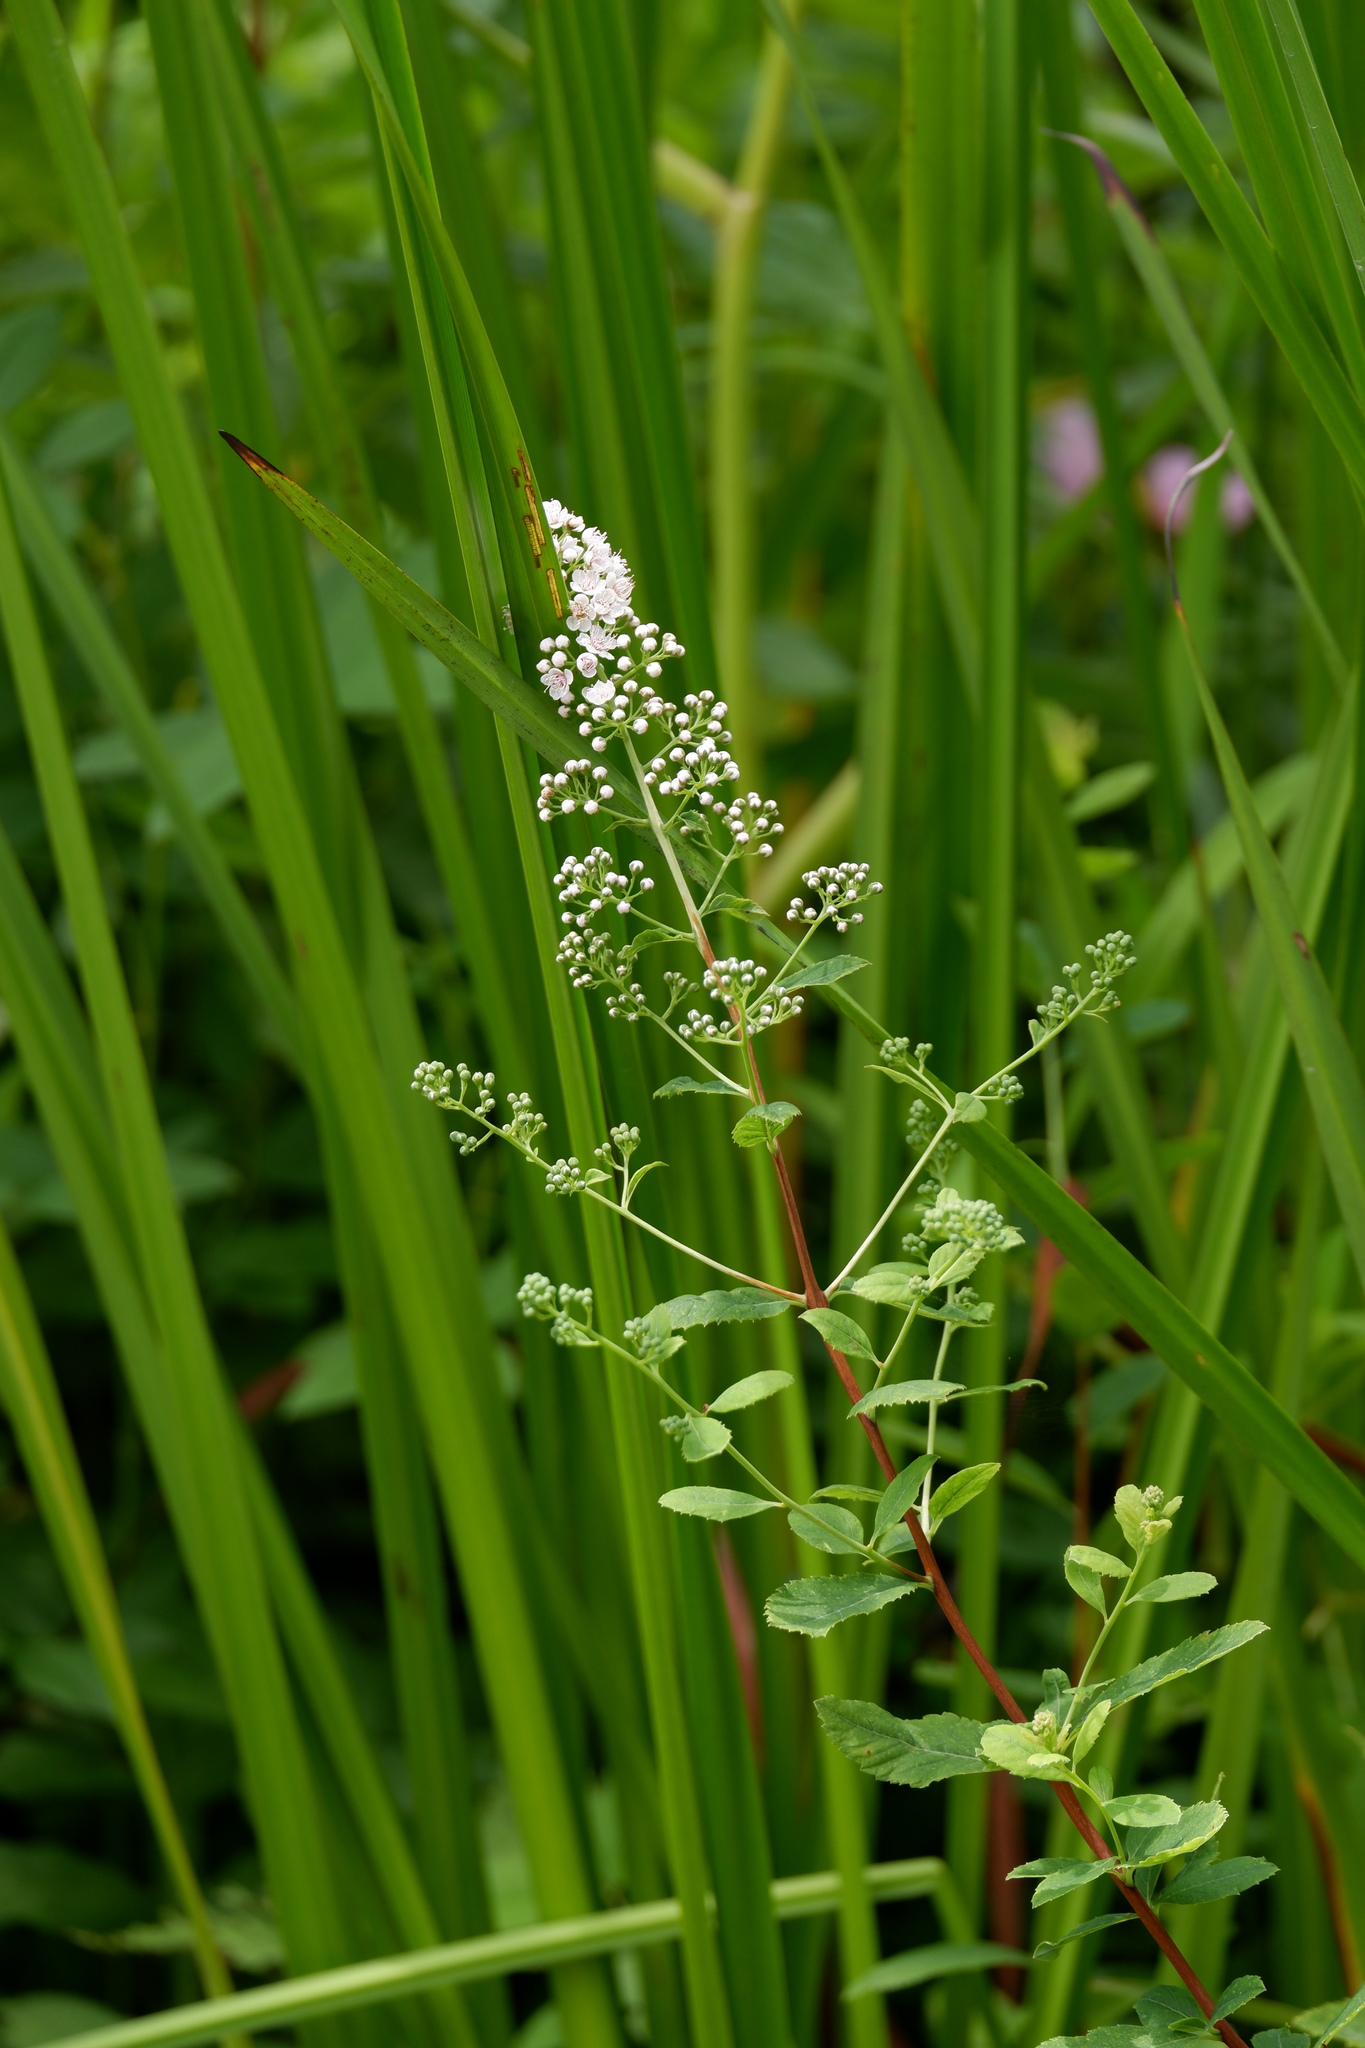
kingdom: Plantae
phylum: Tracheophyta
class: Magnoliopsida
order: Rosales
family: Rosaceae
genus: Spiraea
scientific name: Spiraea alba
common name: Pale bridewort
